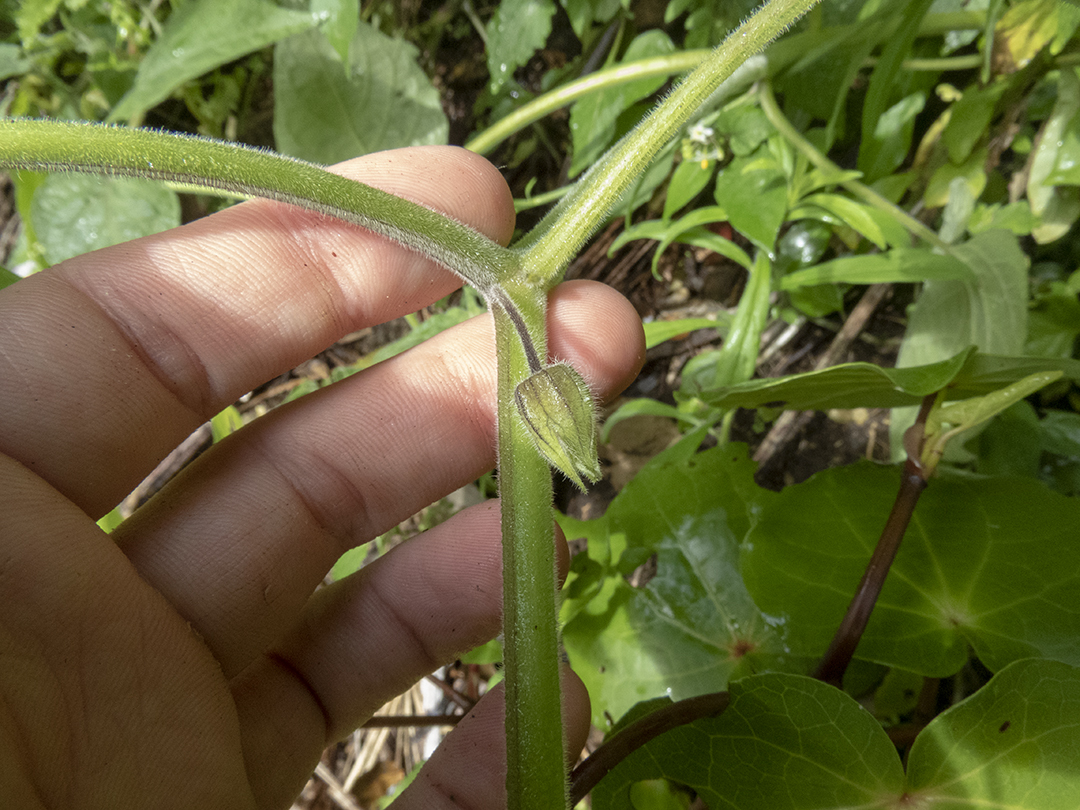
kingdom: Plantae
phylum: Tracheophyta
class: Magnoliopsida
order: Solanales
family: Solanaceae
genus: Physalis
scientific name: Physalis peruviana
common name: Cape-gooseberry
